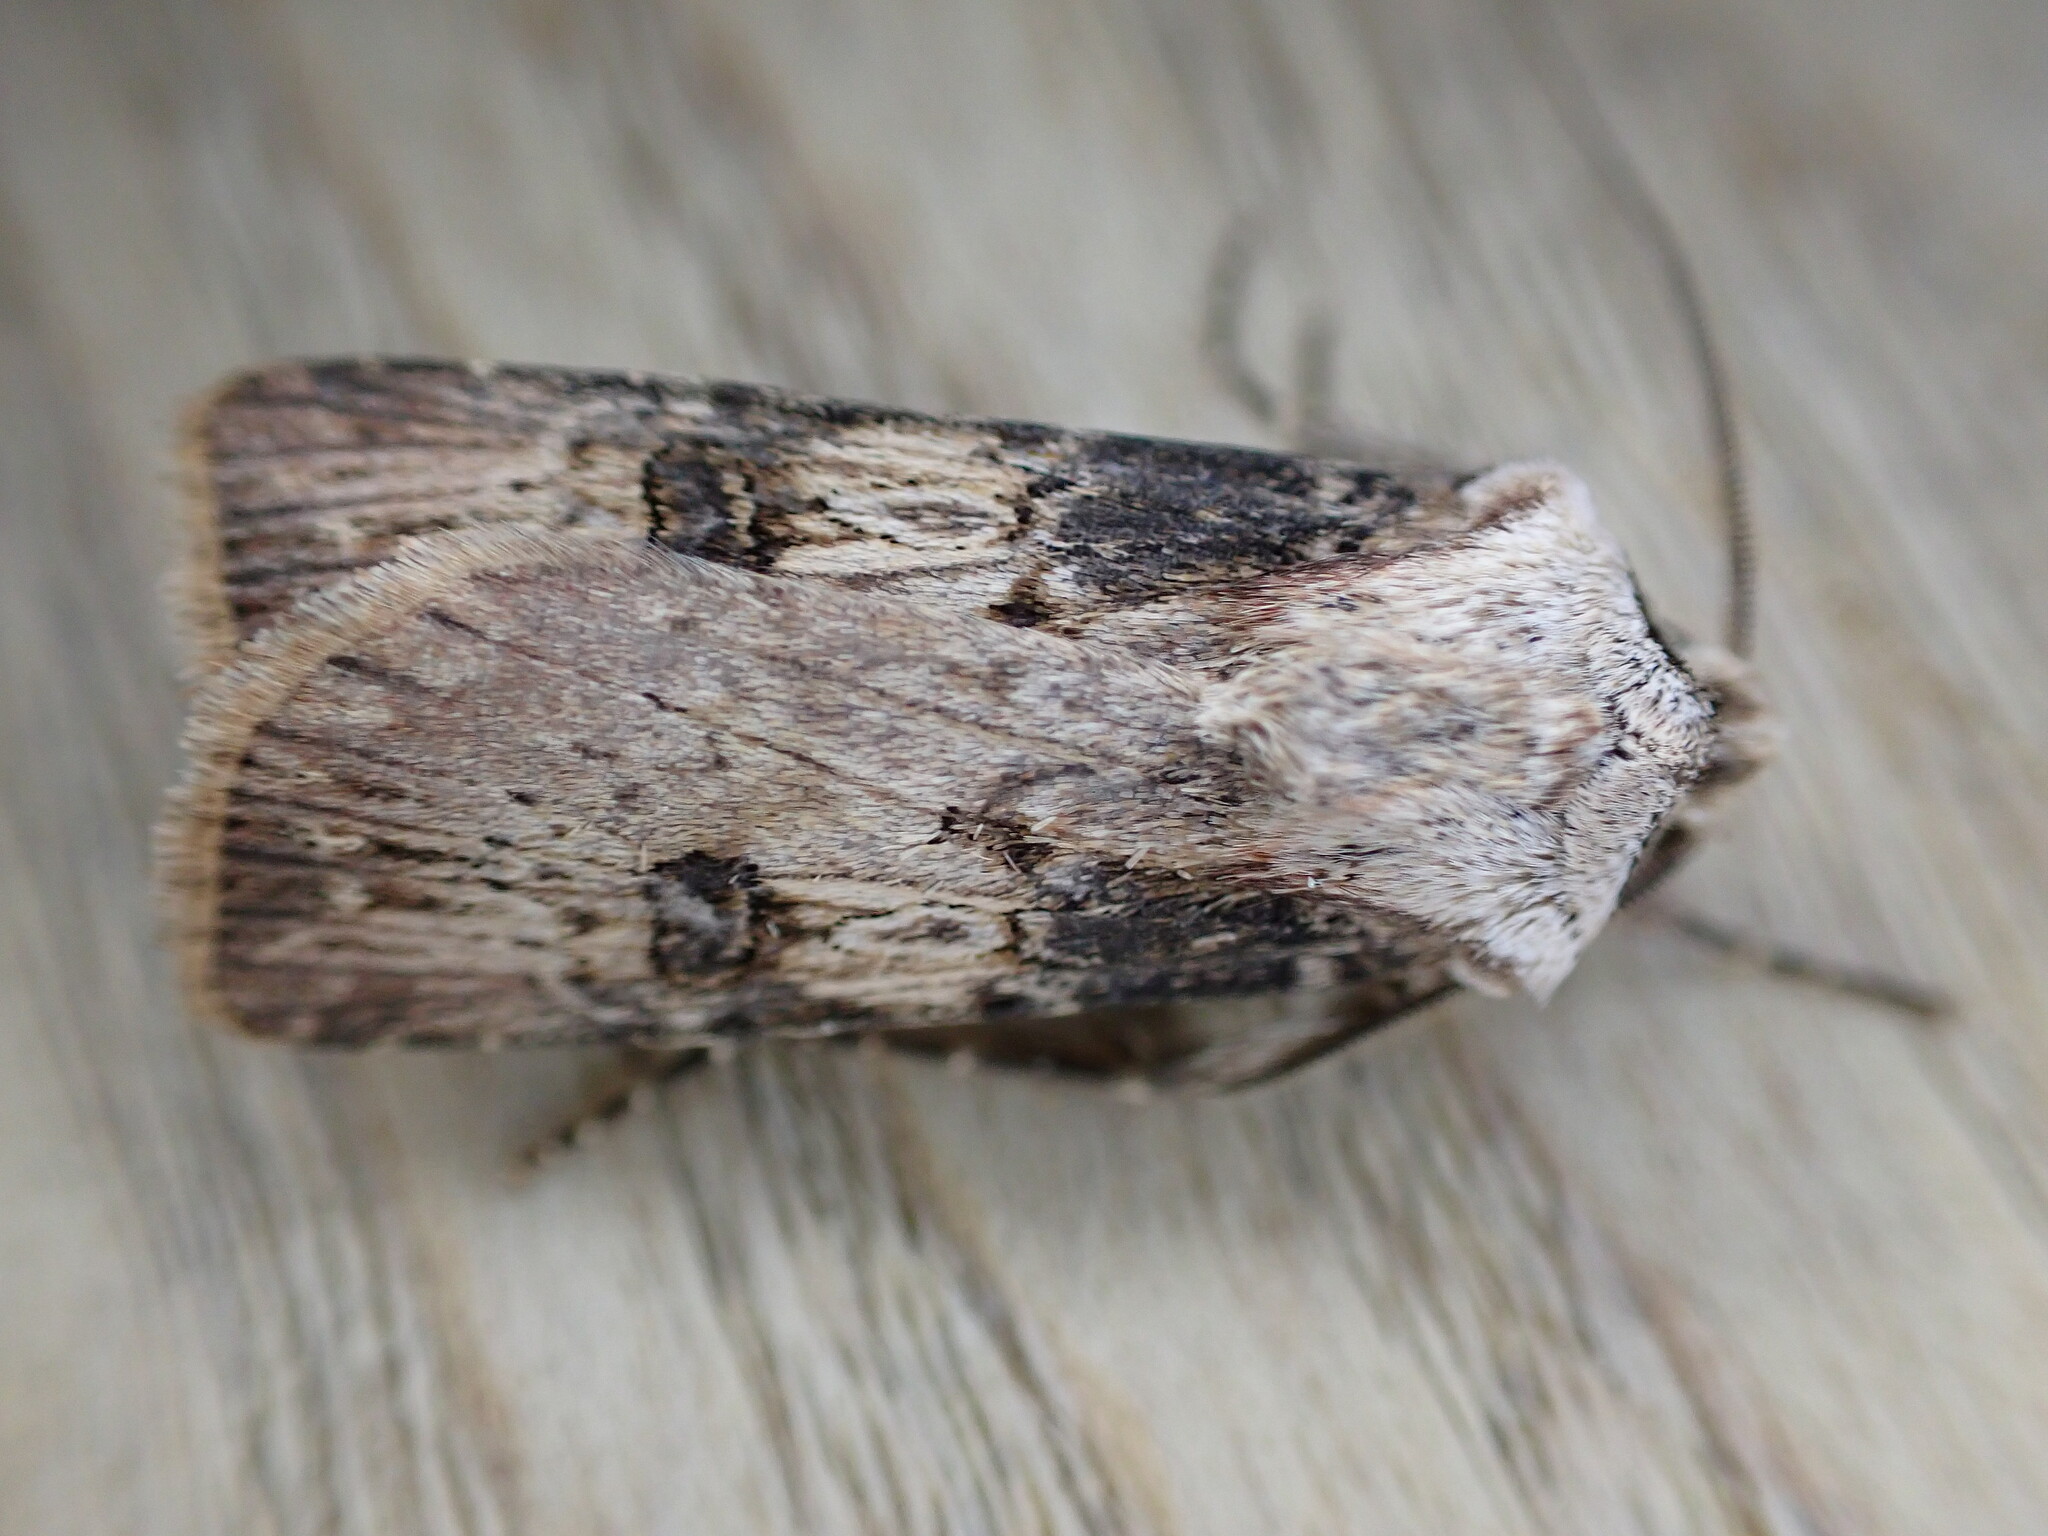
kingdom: Animalia
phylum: Arthropoda
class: Insecta
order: Lepidoptera
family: Noctuidae
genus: Agrotis
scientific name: Agrotis puta
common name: Shuttle-shaped dart
